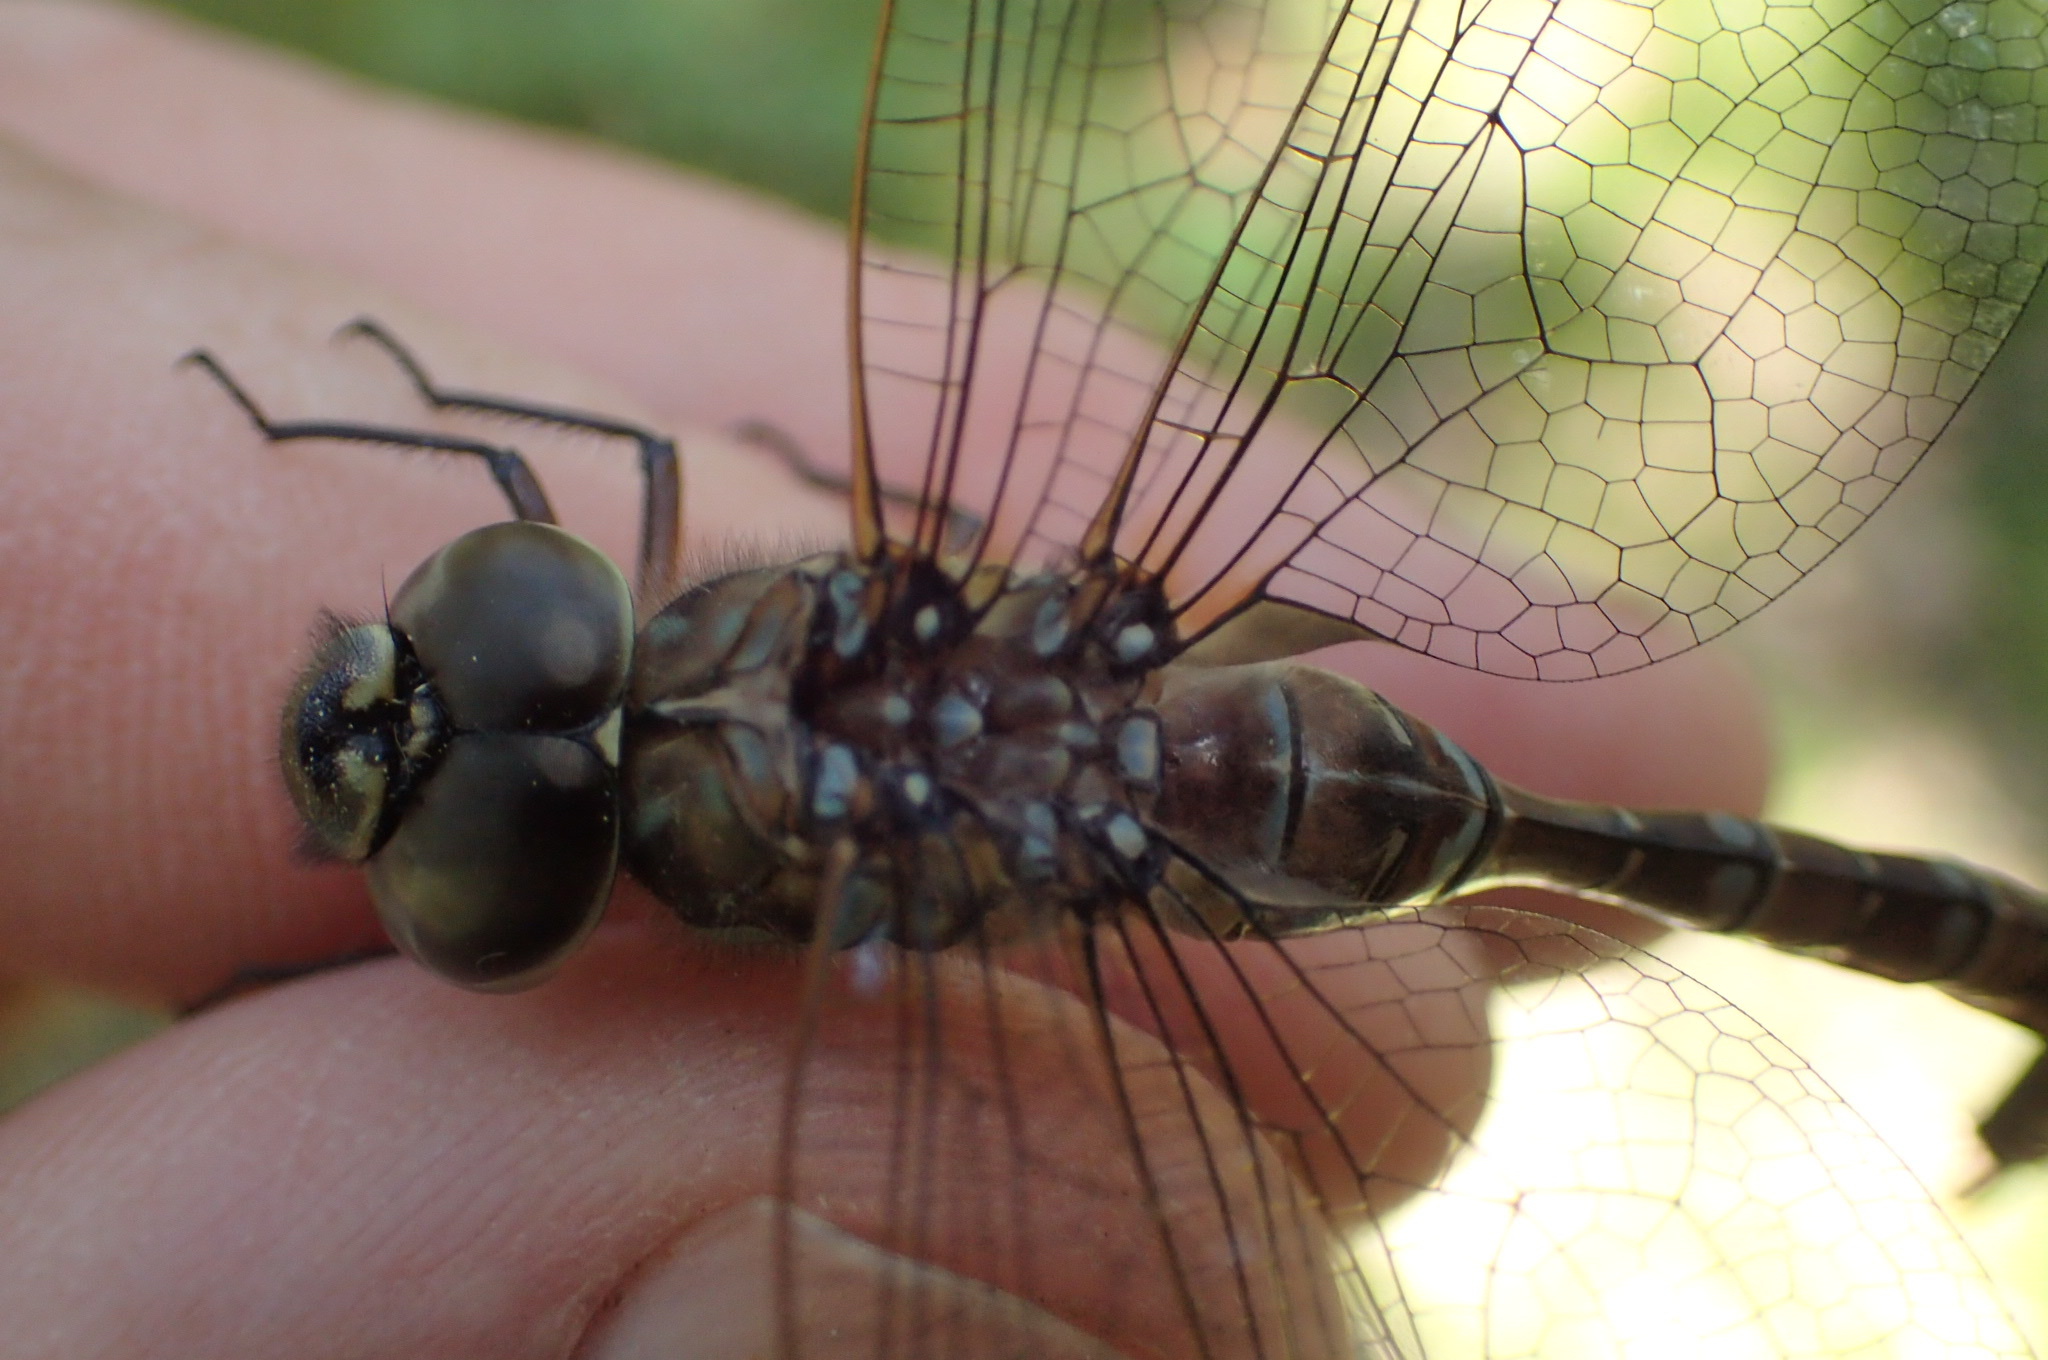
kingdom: Animalia
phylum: Arthropoda
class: Insecta
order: Odonata
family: Aeshnidae
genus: Aeshna
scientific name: Aeshna canadensis
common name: Canada darner
